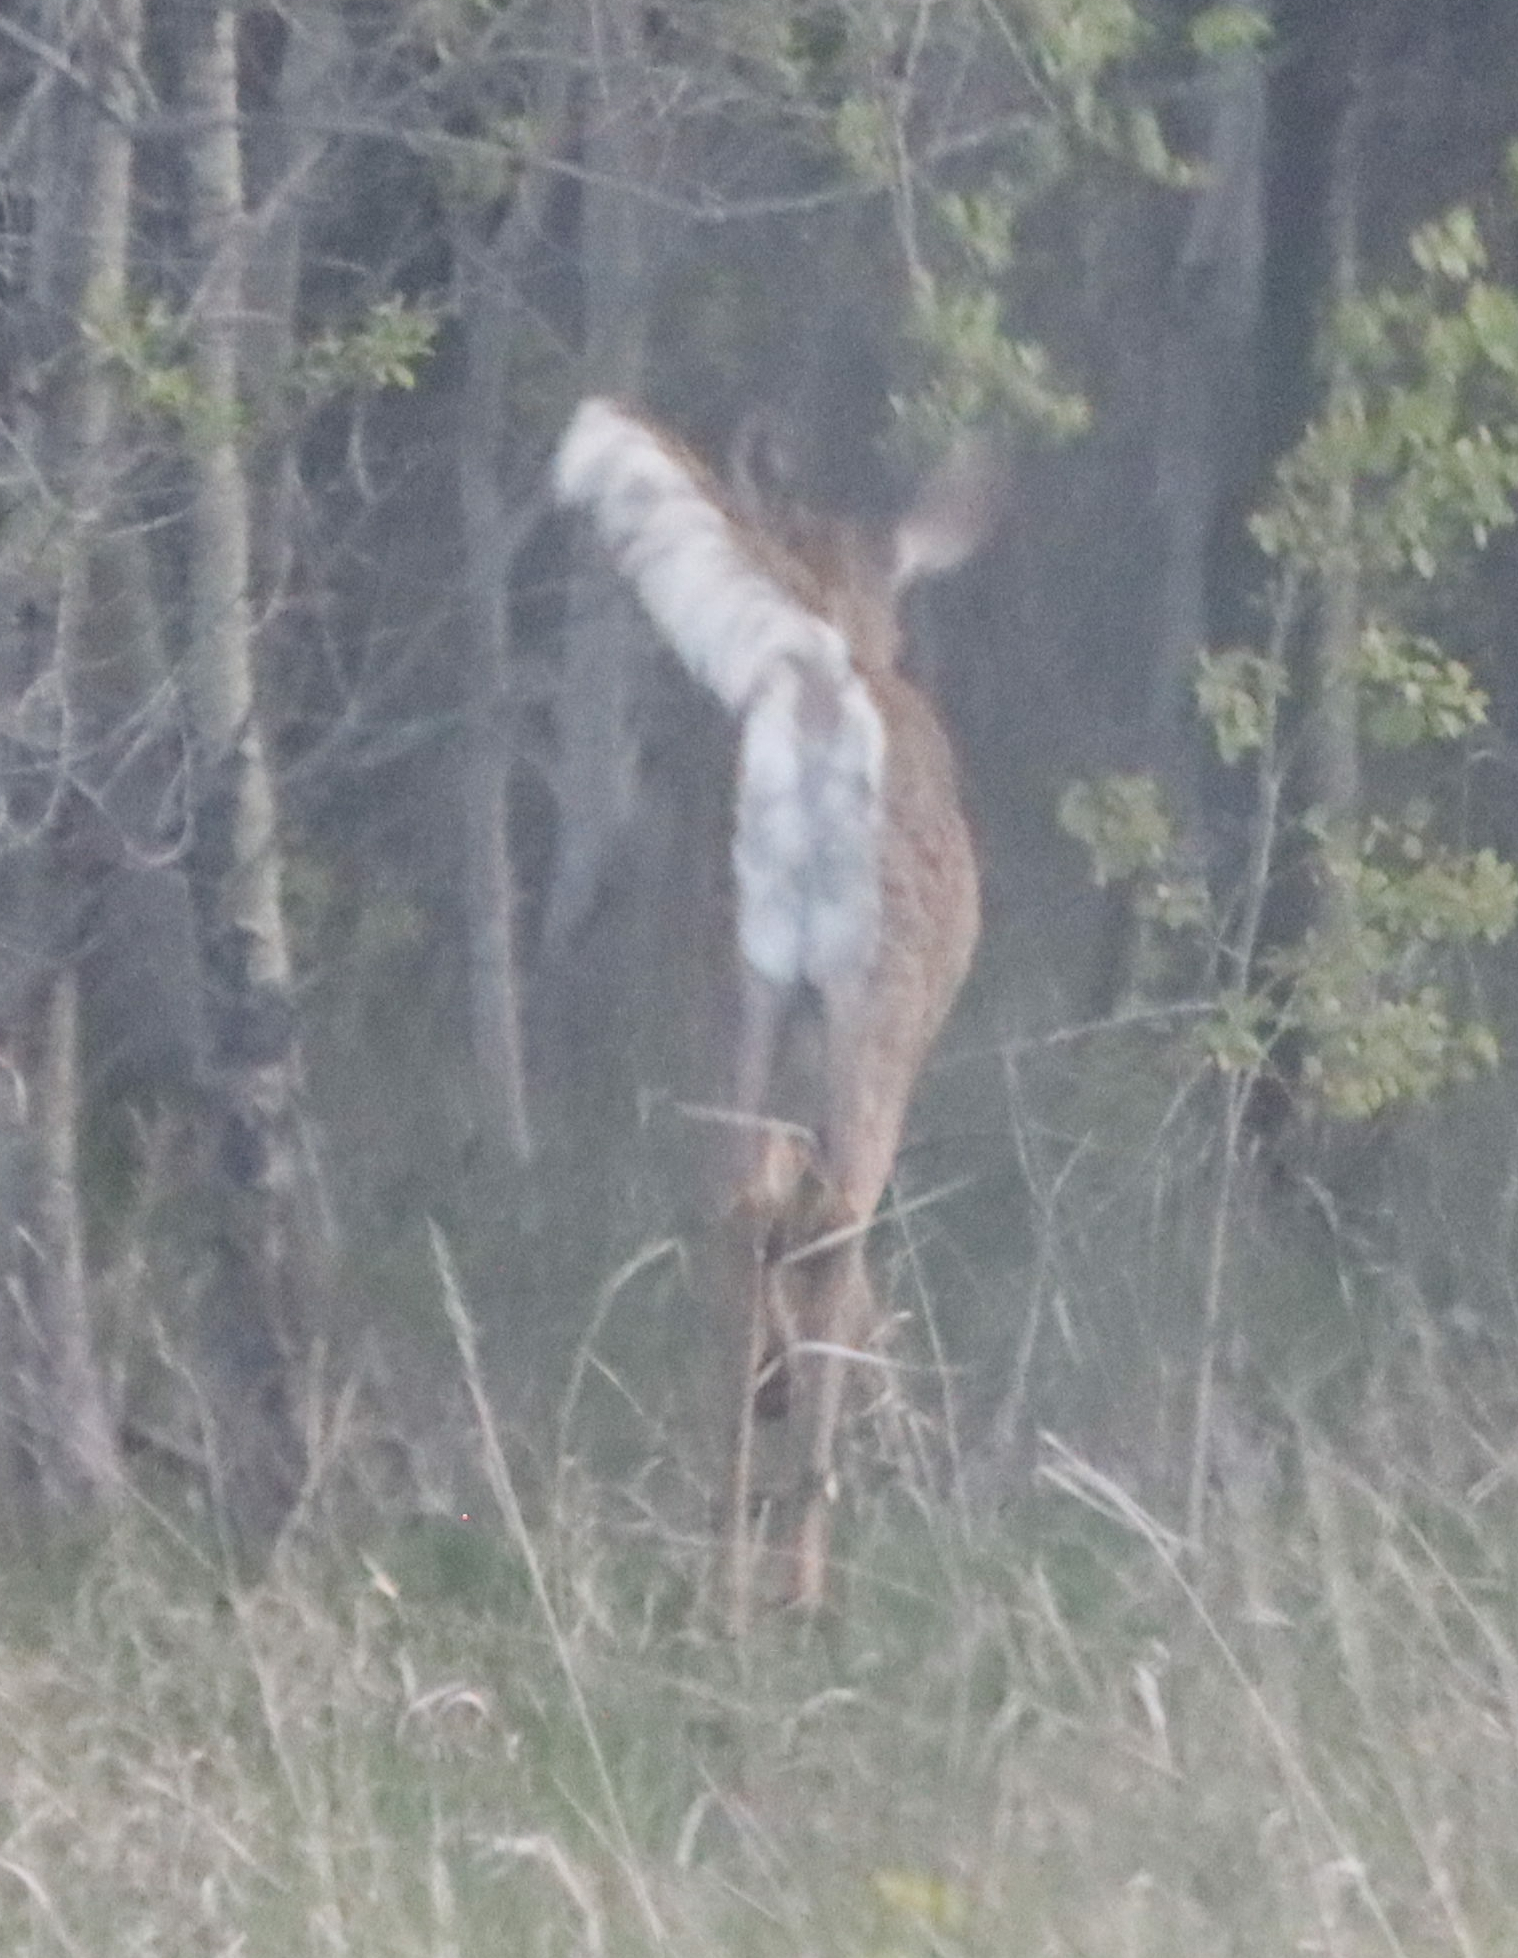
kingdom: Animalia
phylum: Chordata
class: Mammalia
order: Artiodactyla
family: Cervidae
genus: Odocoileus
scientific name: Odocoileus virginianus
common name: White-tailed deer
